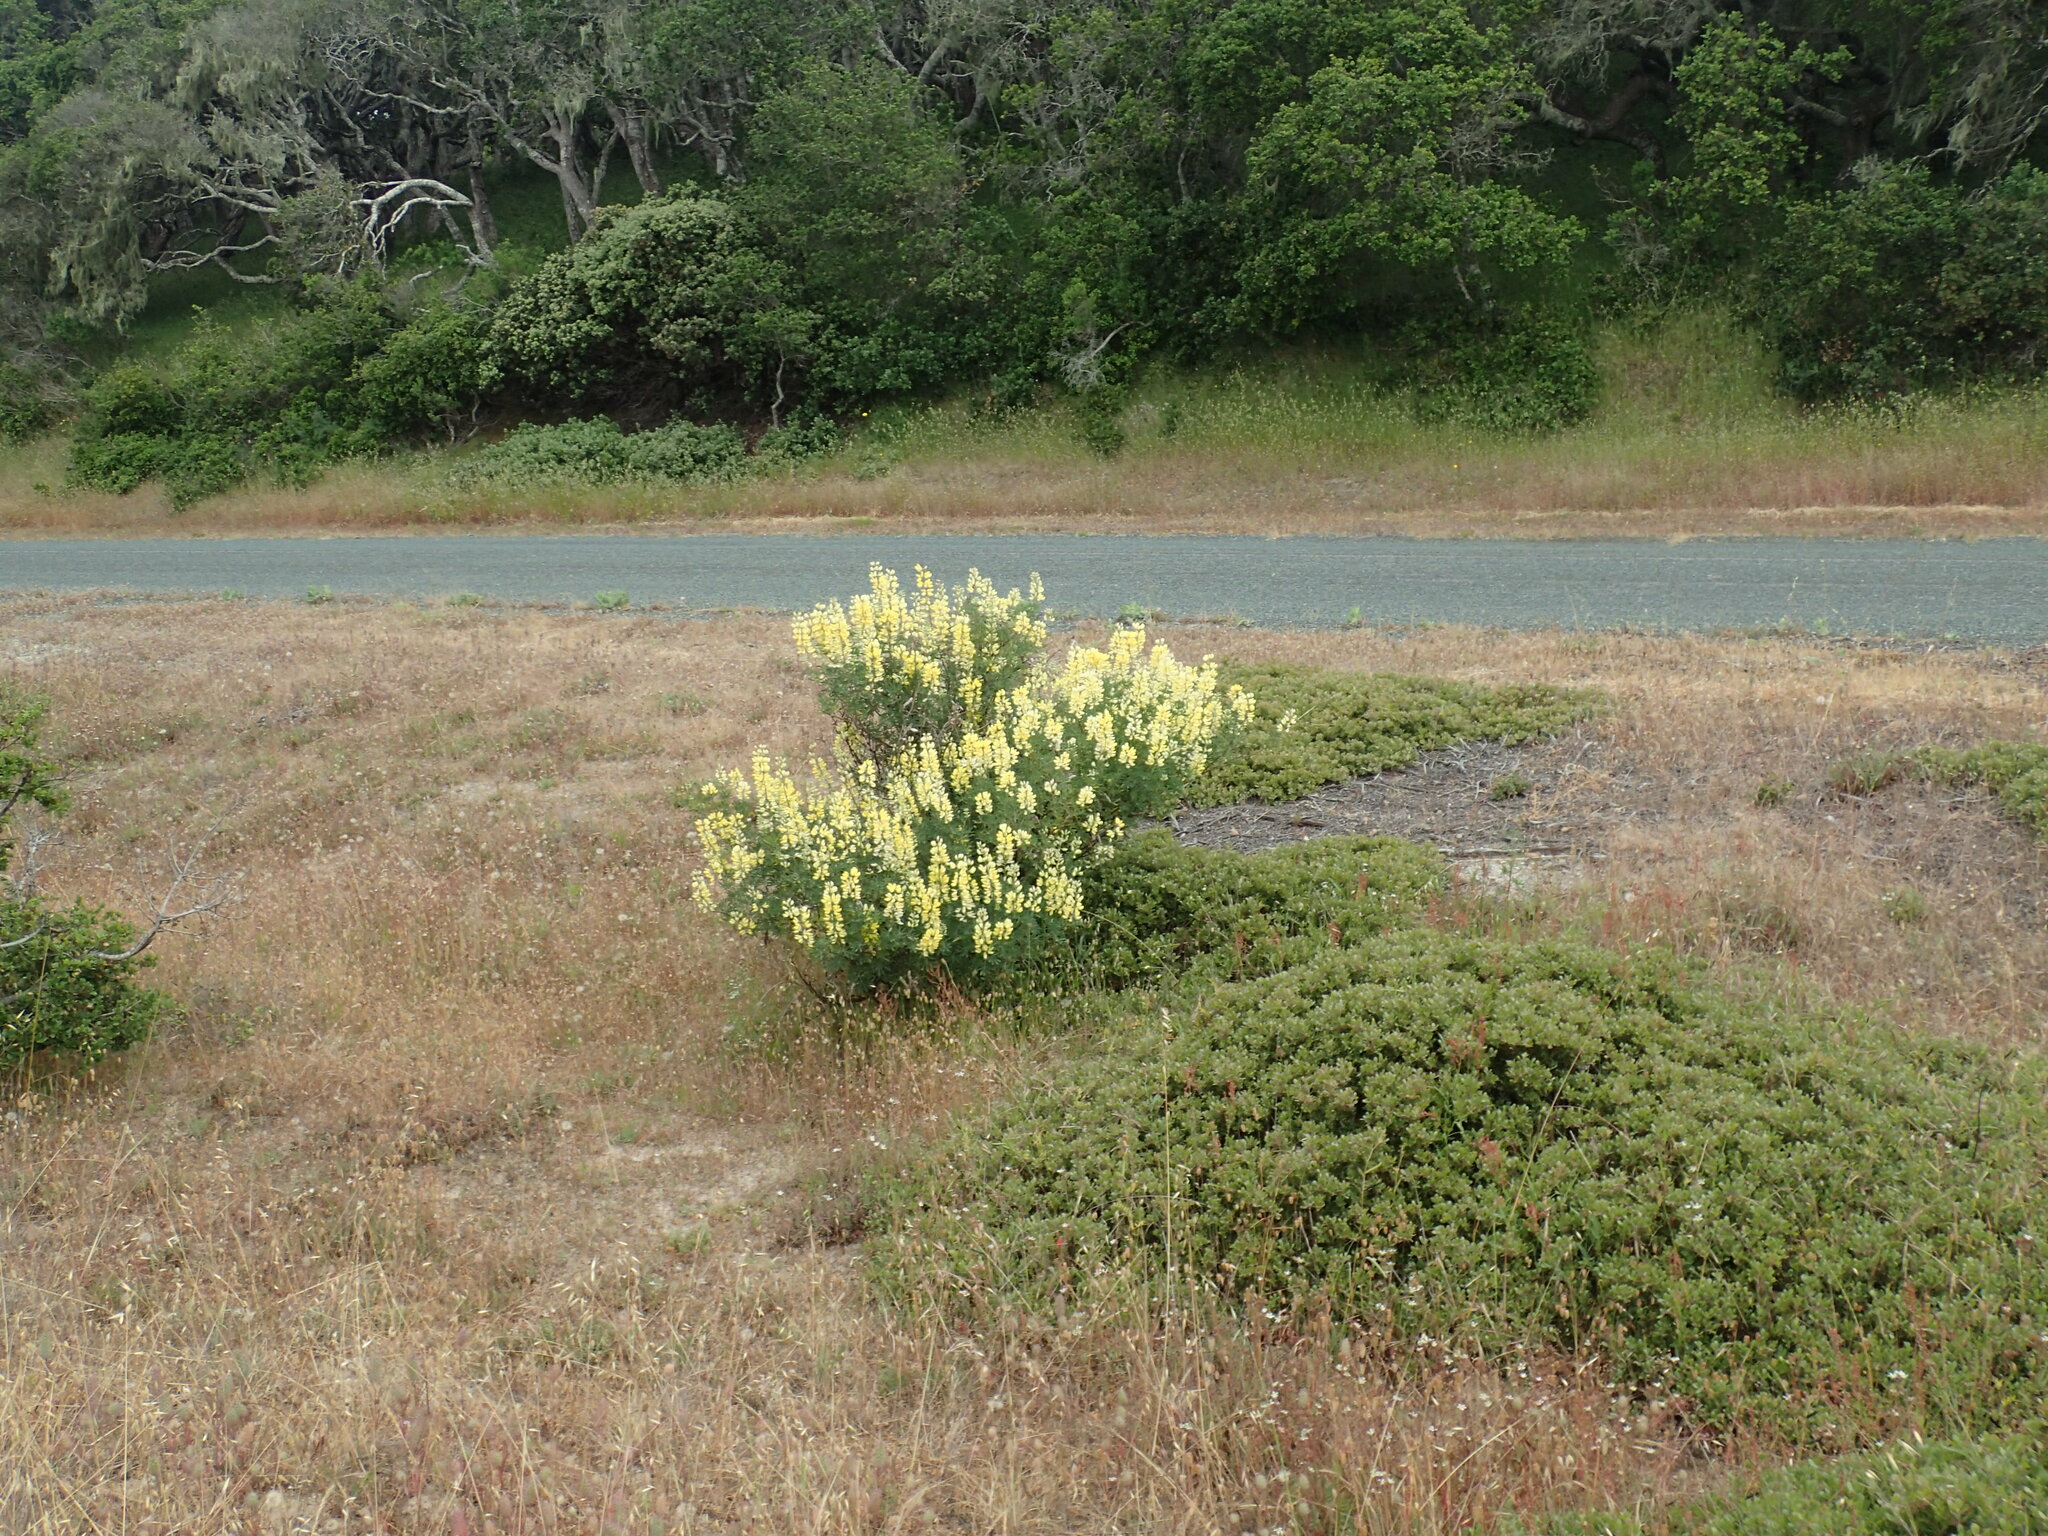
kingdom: Plantae
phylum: Tracheophyta
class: Magnoliopsida
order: Fabales
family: Fabaceae
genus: Lupinus
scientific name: Lupinus arboreus
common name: Yellow bush lupine
